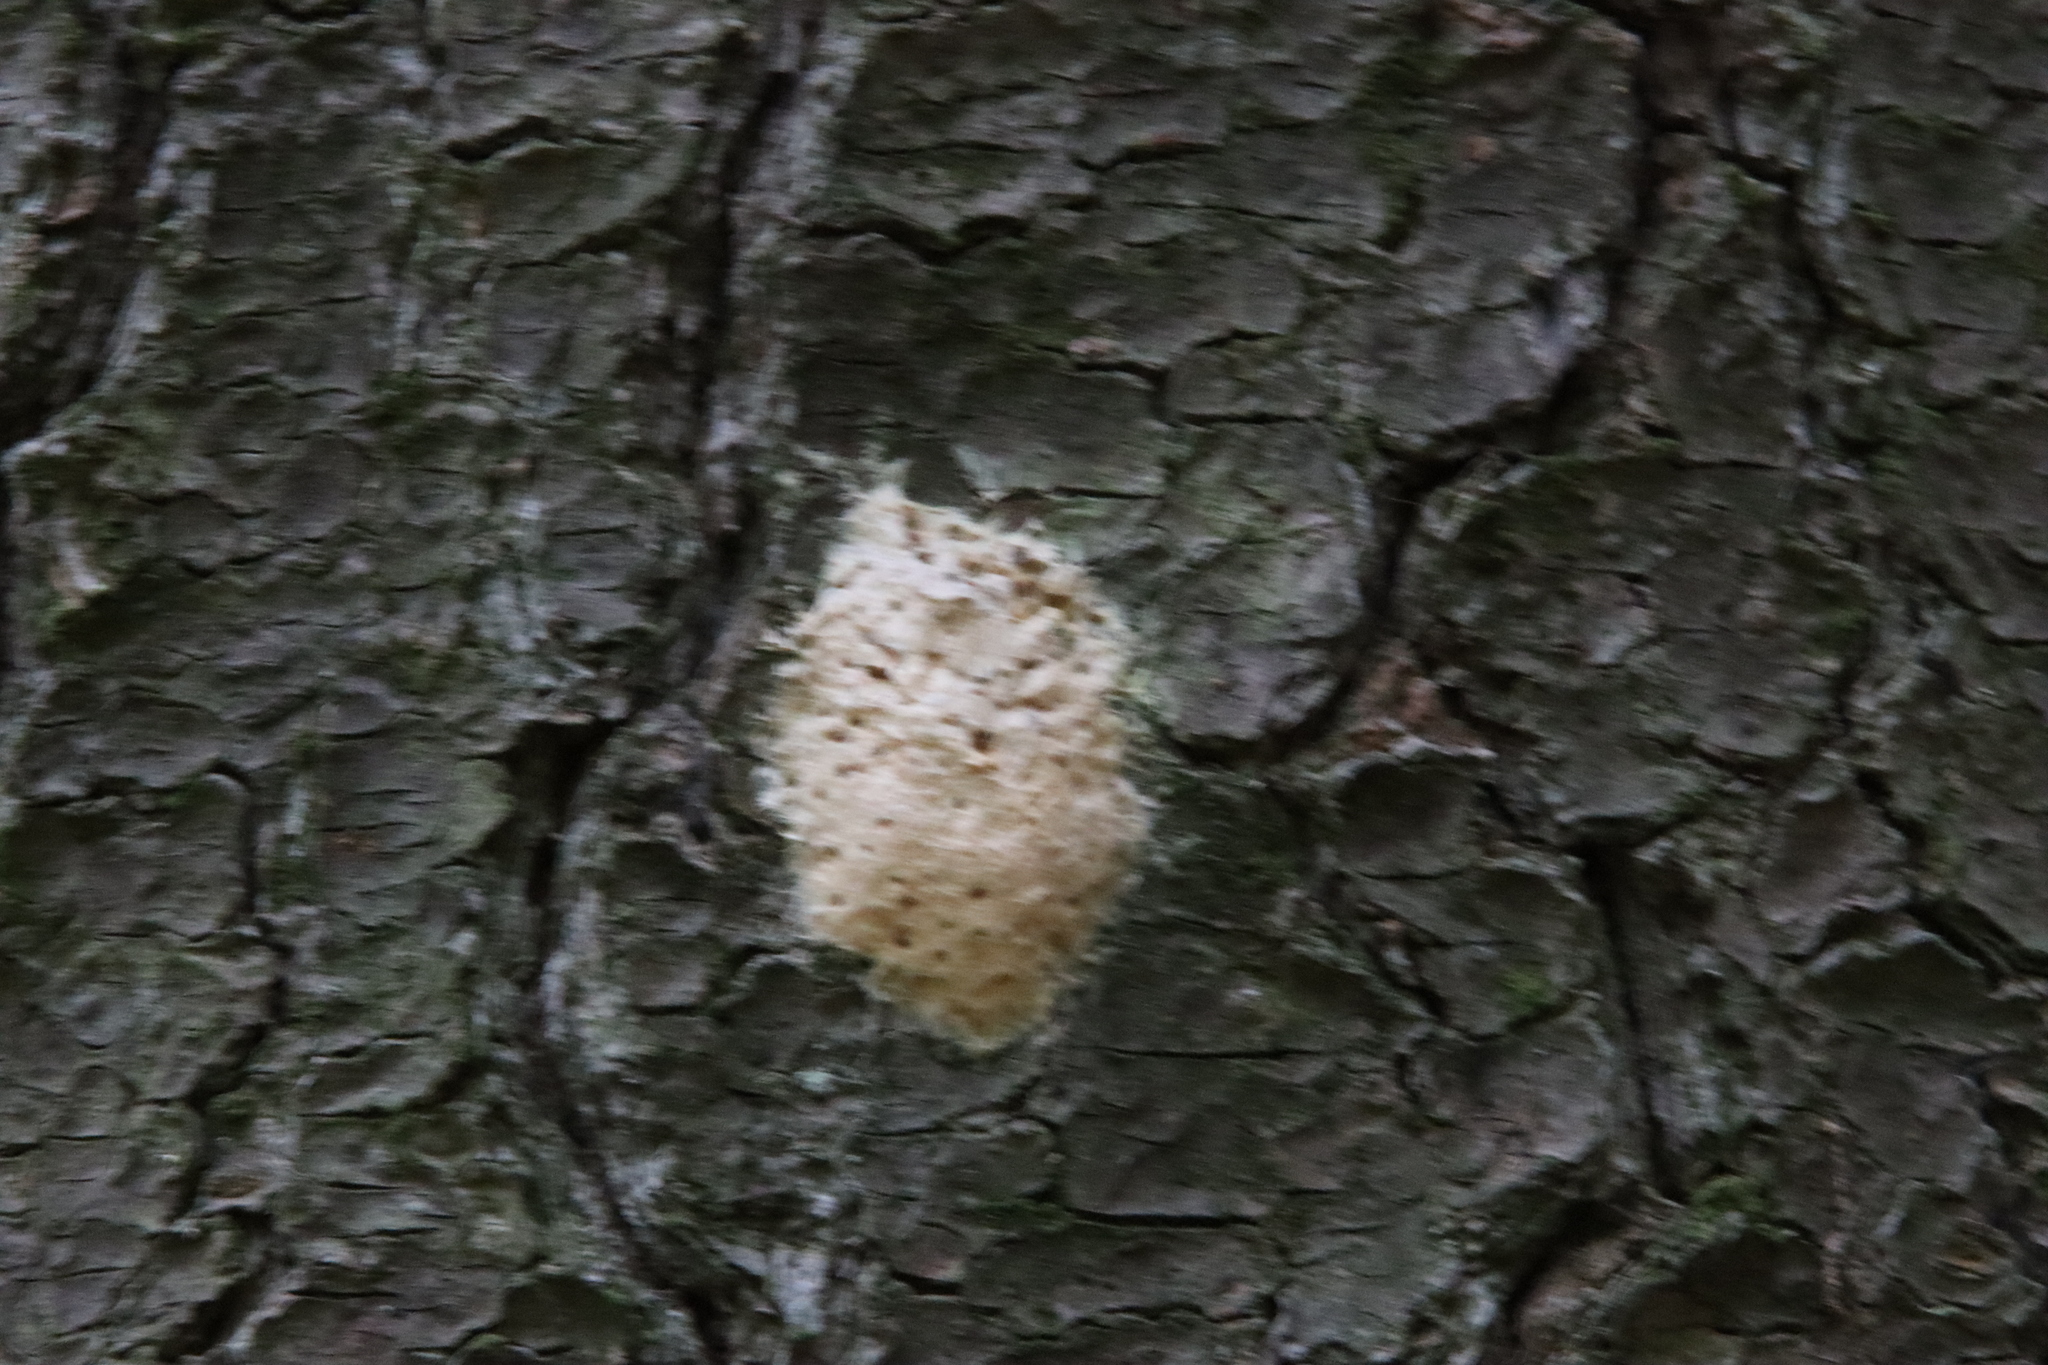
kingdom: Animalia
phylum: Arthropoda
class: Insecta
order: Lepidoptera
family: Erebidae
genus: Lymantria
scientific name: Lymantria dispar
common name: Gypsy moth
